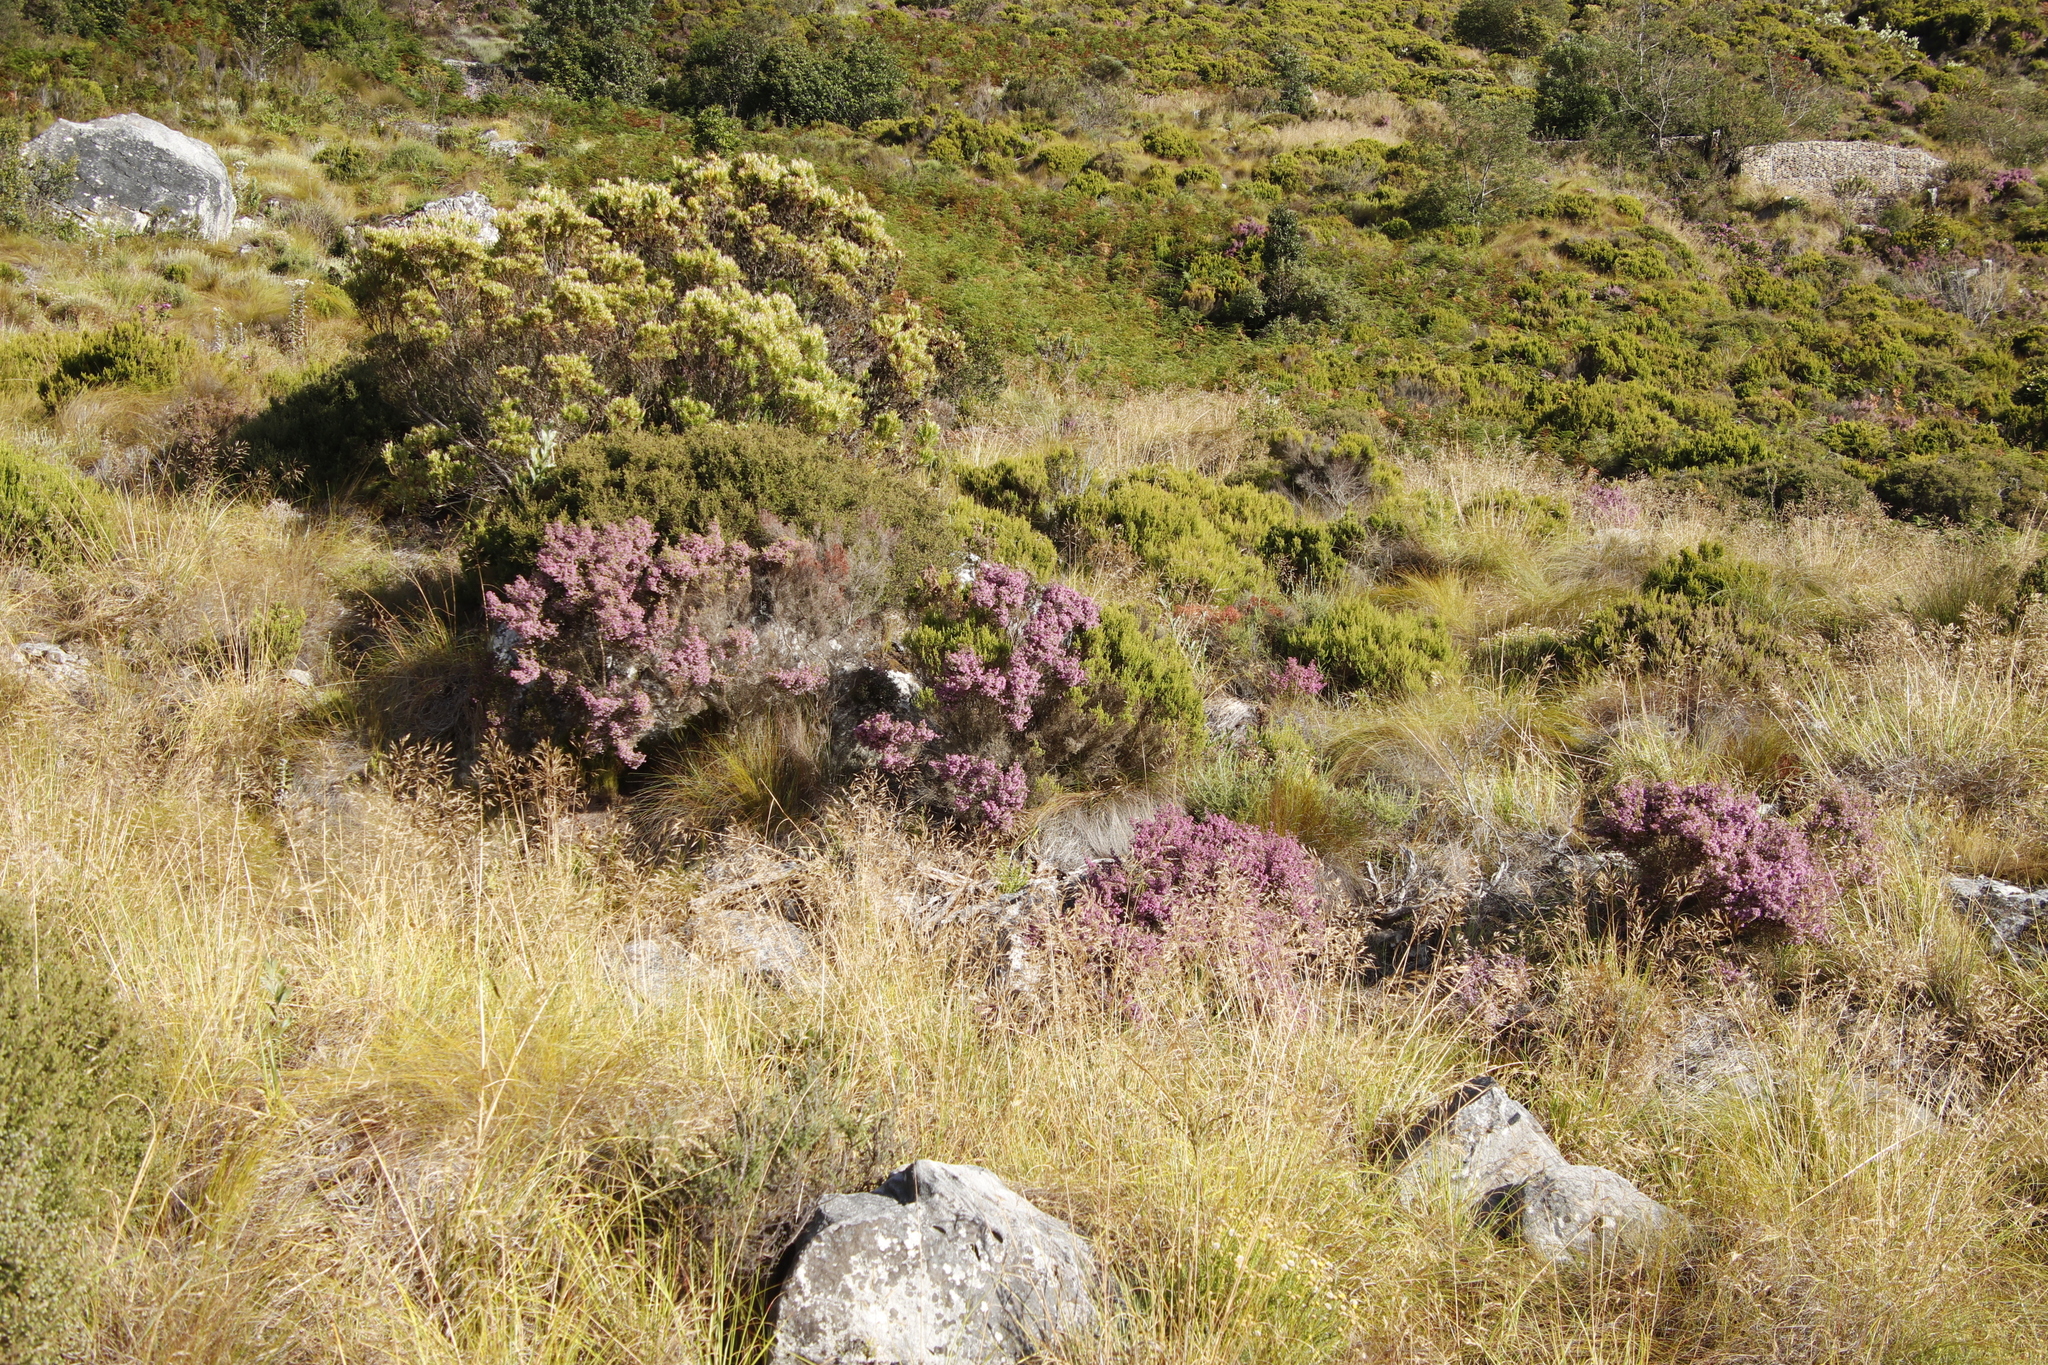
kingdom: Plantae
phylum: Tracheophyta
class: Magnoliopsida
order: Ericales
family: Ericaceae
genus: Erica
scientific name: Erica hirtiflora
